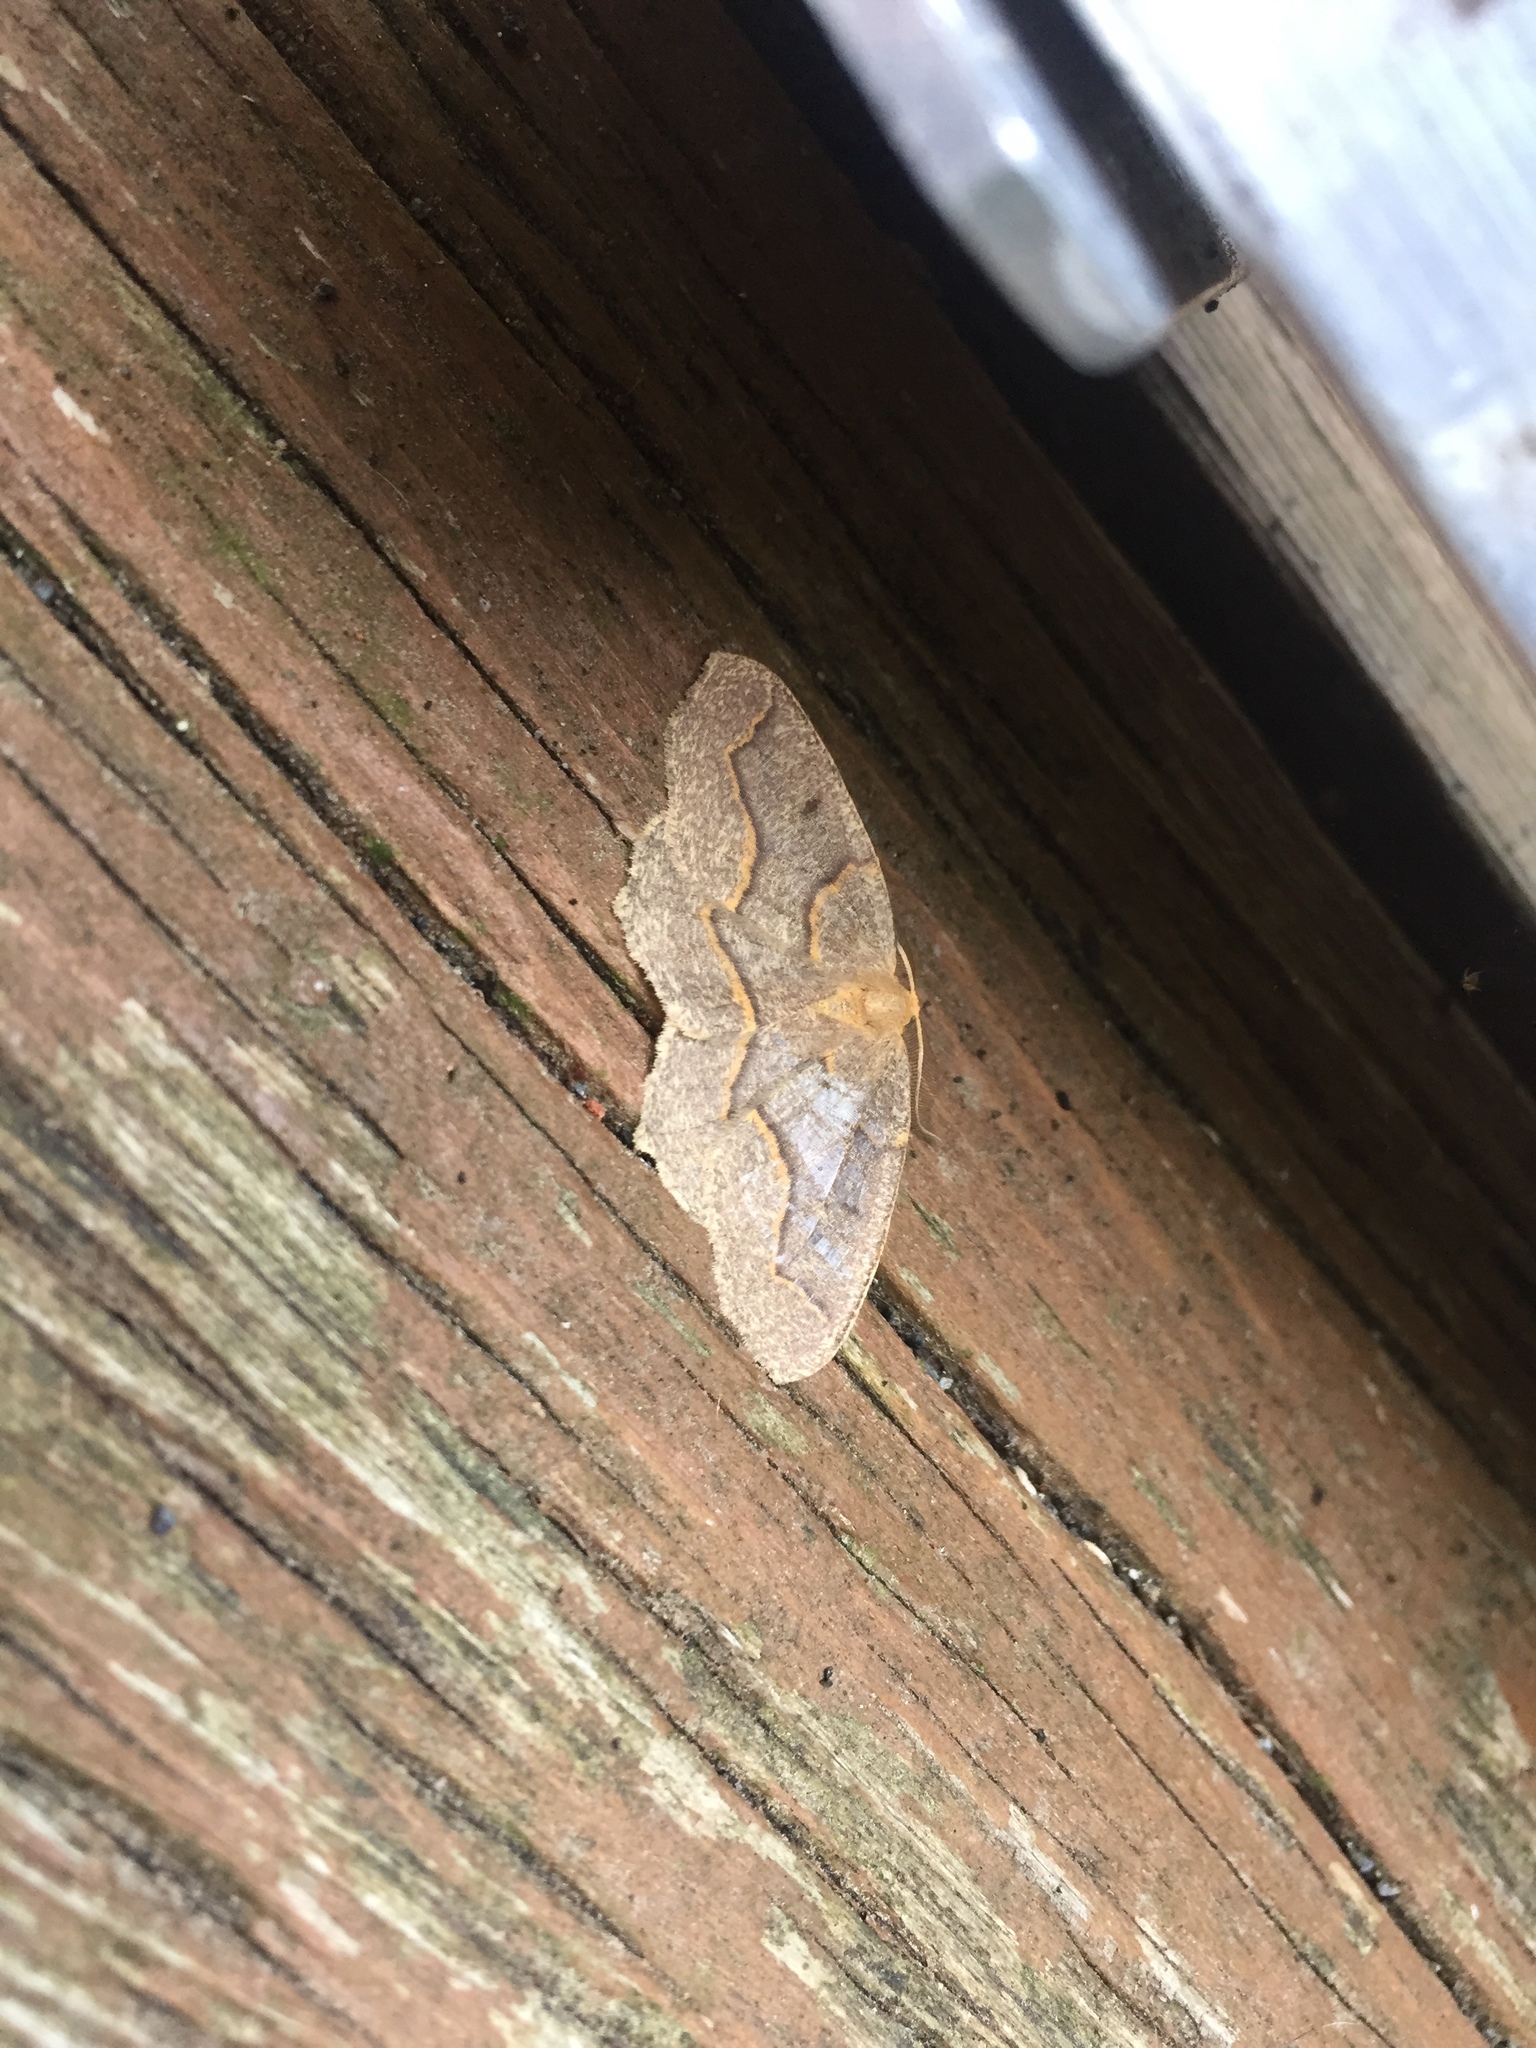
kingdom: Animalia
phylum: Arthropoda
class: Insecta
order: Lepidoptera
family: Geometridae
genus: Lambdina
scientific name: Lambdina fiscellaria
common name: Hemlock looper
